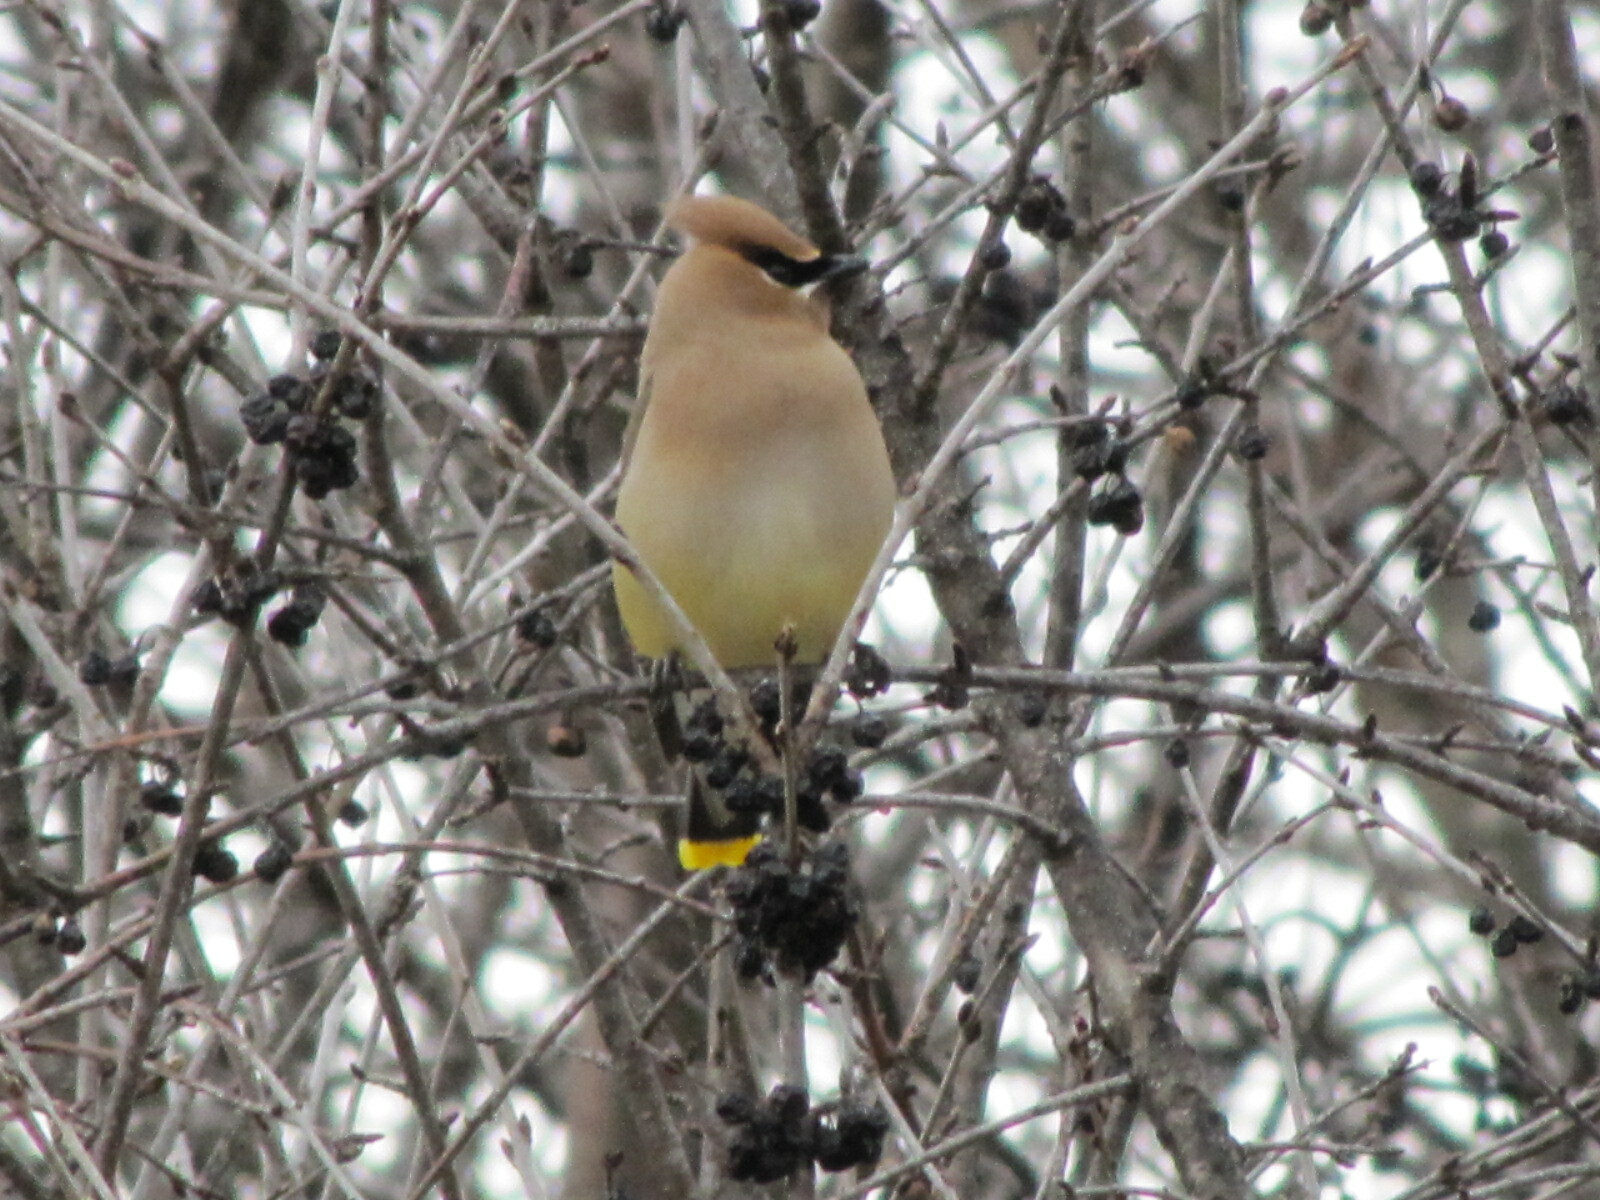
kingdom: Animalia
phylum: Chordata
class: Aves
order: Passeriformes
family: Bombycillidae
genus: Bombycilla
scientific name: Bombycilla cedrorum
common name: Cedar waxwing
